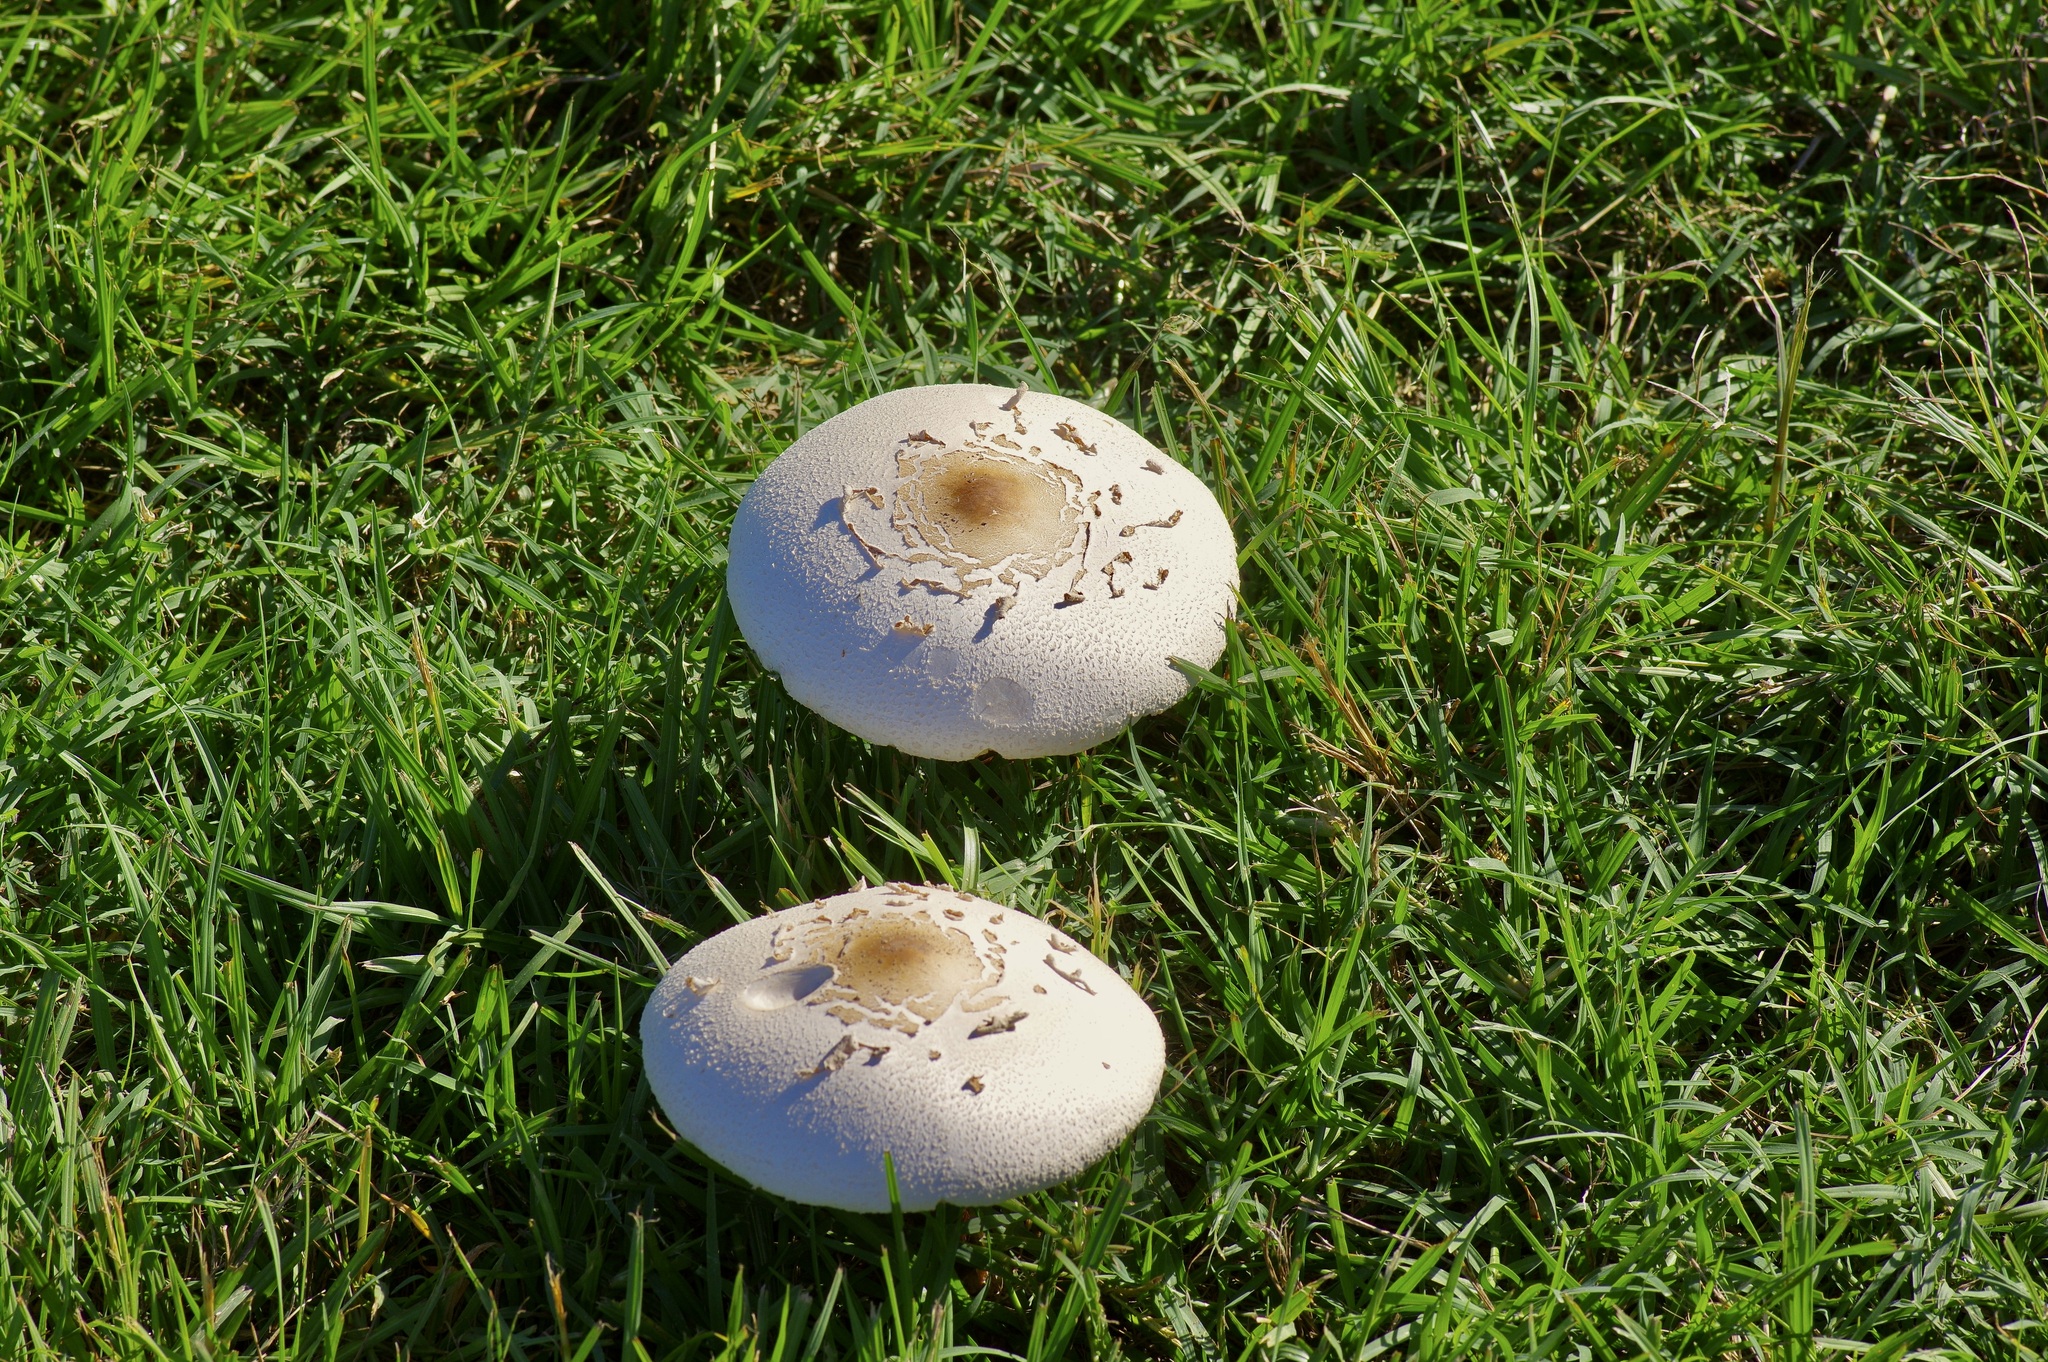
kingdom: Fungi
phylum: Basidiomycota
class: Agaricomycetes
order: Agaricales
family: Agaricaceae
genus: Chlorophyllum
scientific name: Chlorophyllum molybdites
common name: False parasol
